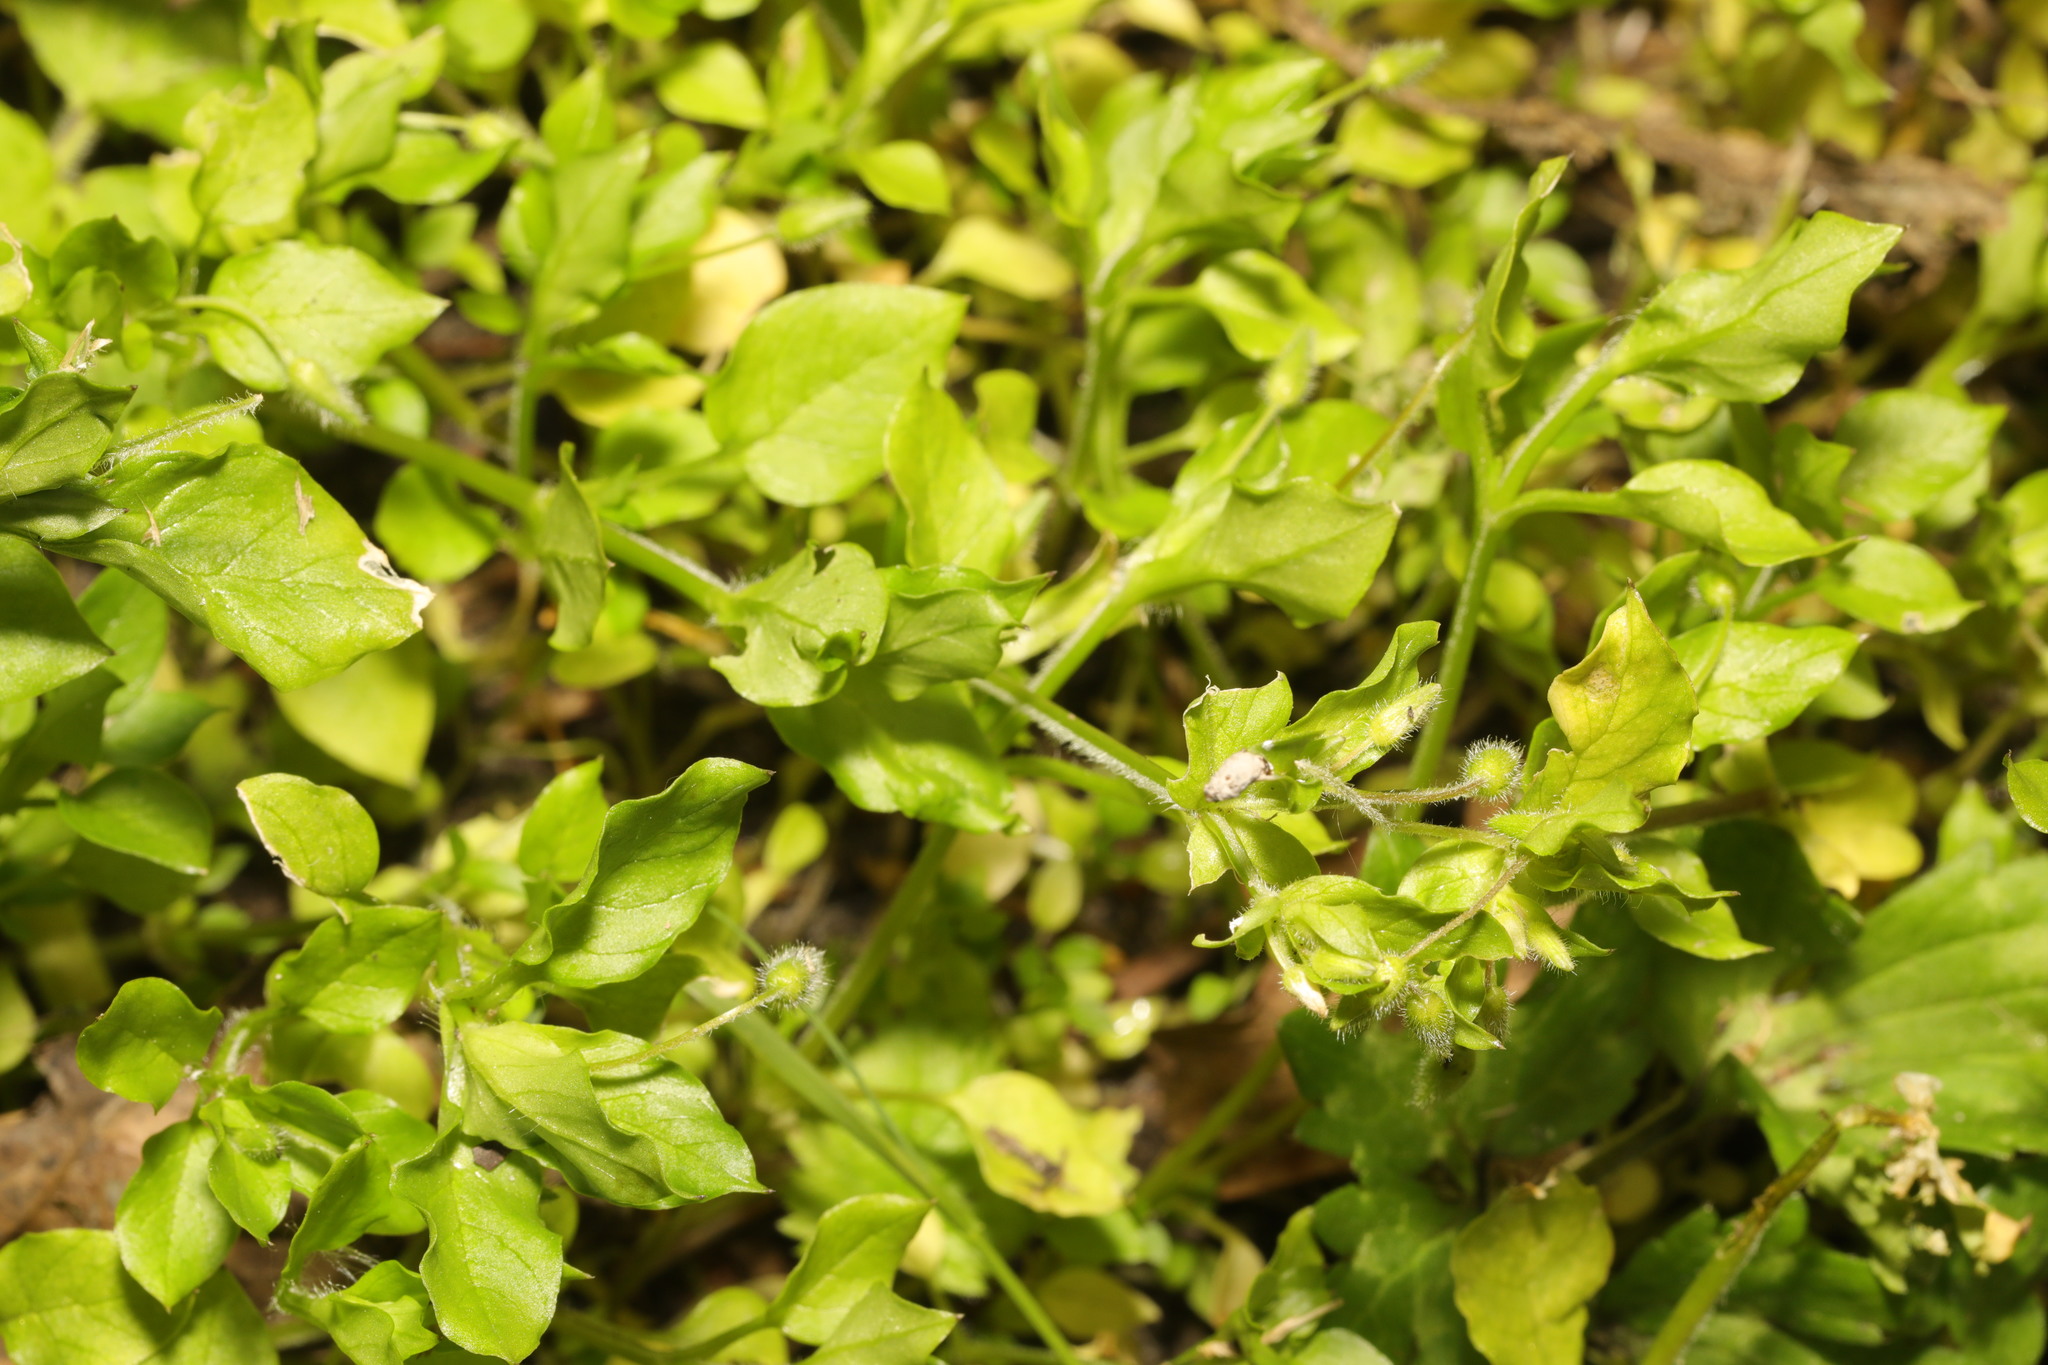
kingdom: Plantae
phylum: Tracheophyta
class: Magnoliopsida
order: Caryophyllales
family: Caryophyllaceae
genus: Stellaria
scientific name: Stellaria media
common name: Common chickweed
